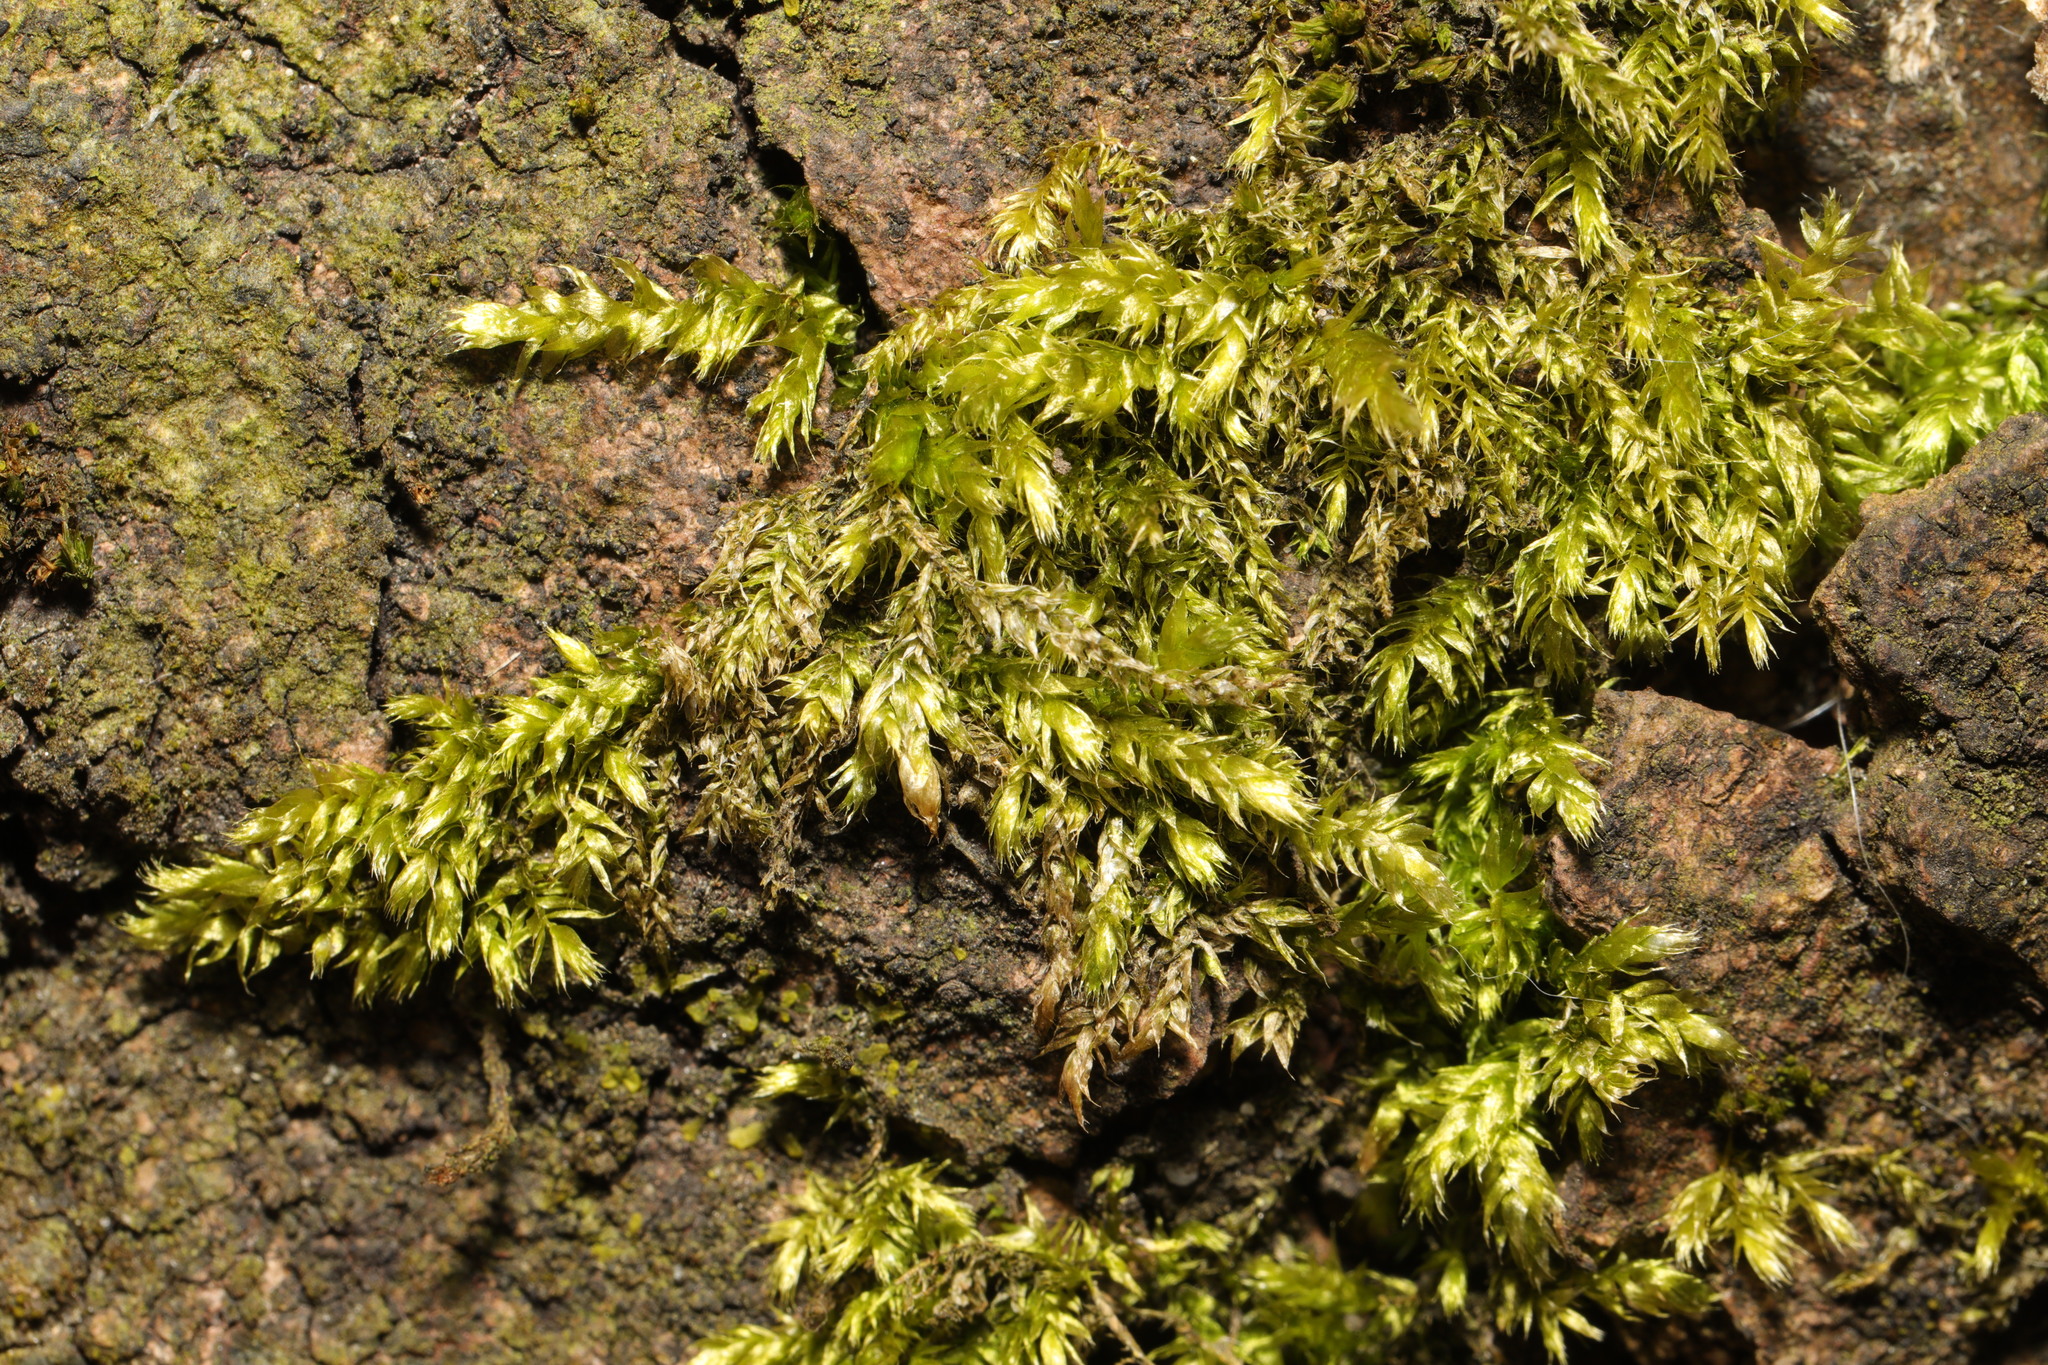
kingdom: Plantae
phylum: Bryophyta
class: Bryopsida
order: Hypnales
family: Brachytheciaceae
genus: Brachythecium
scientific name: Brachythecium rutabulum
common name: Rough-stalked feather-moss
